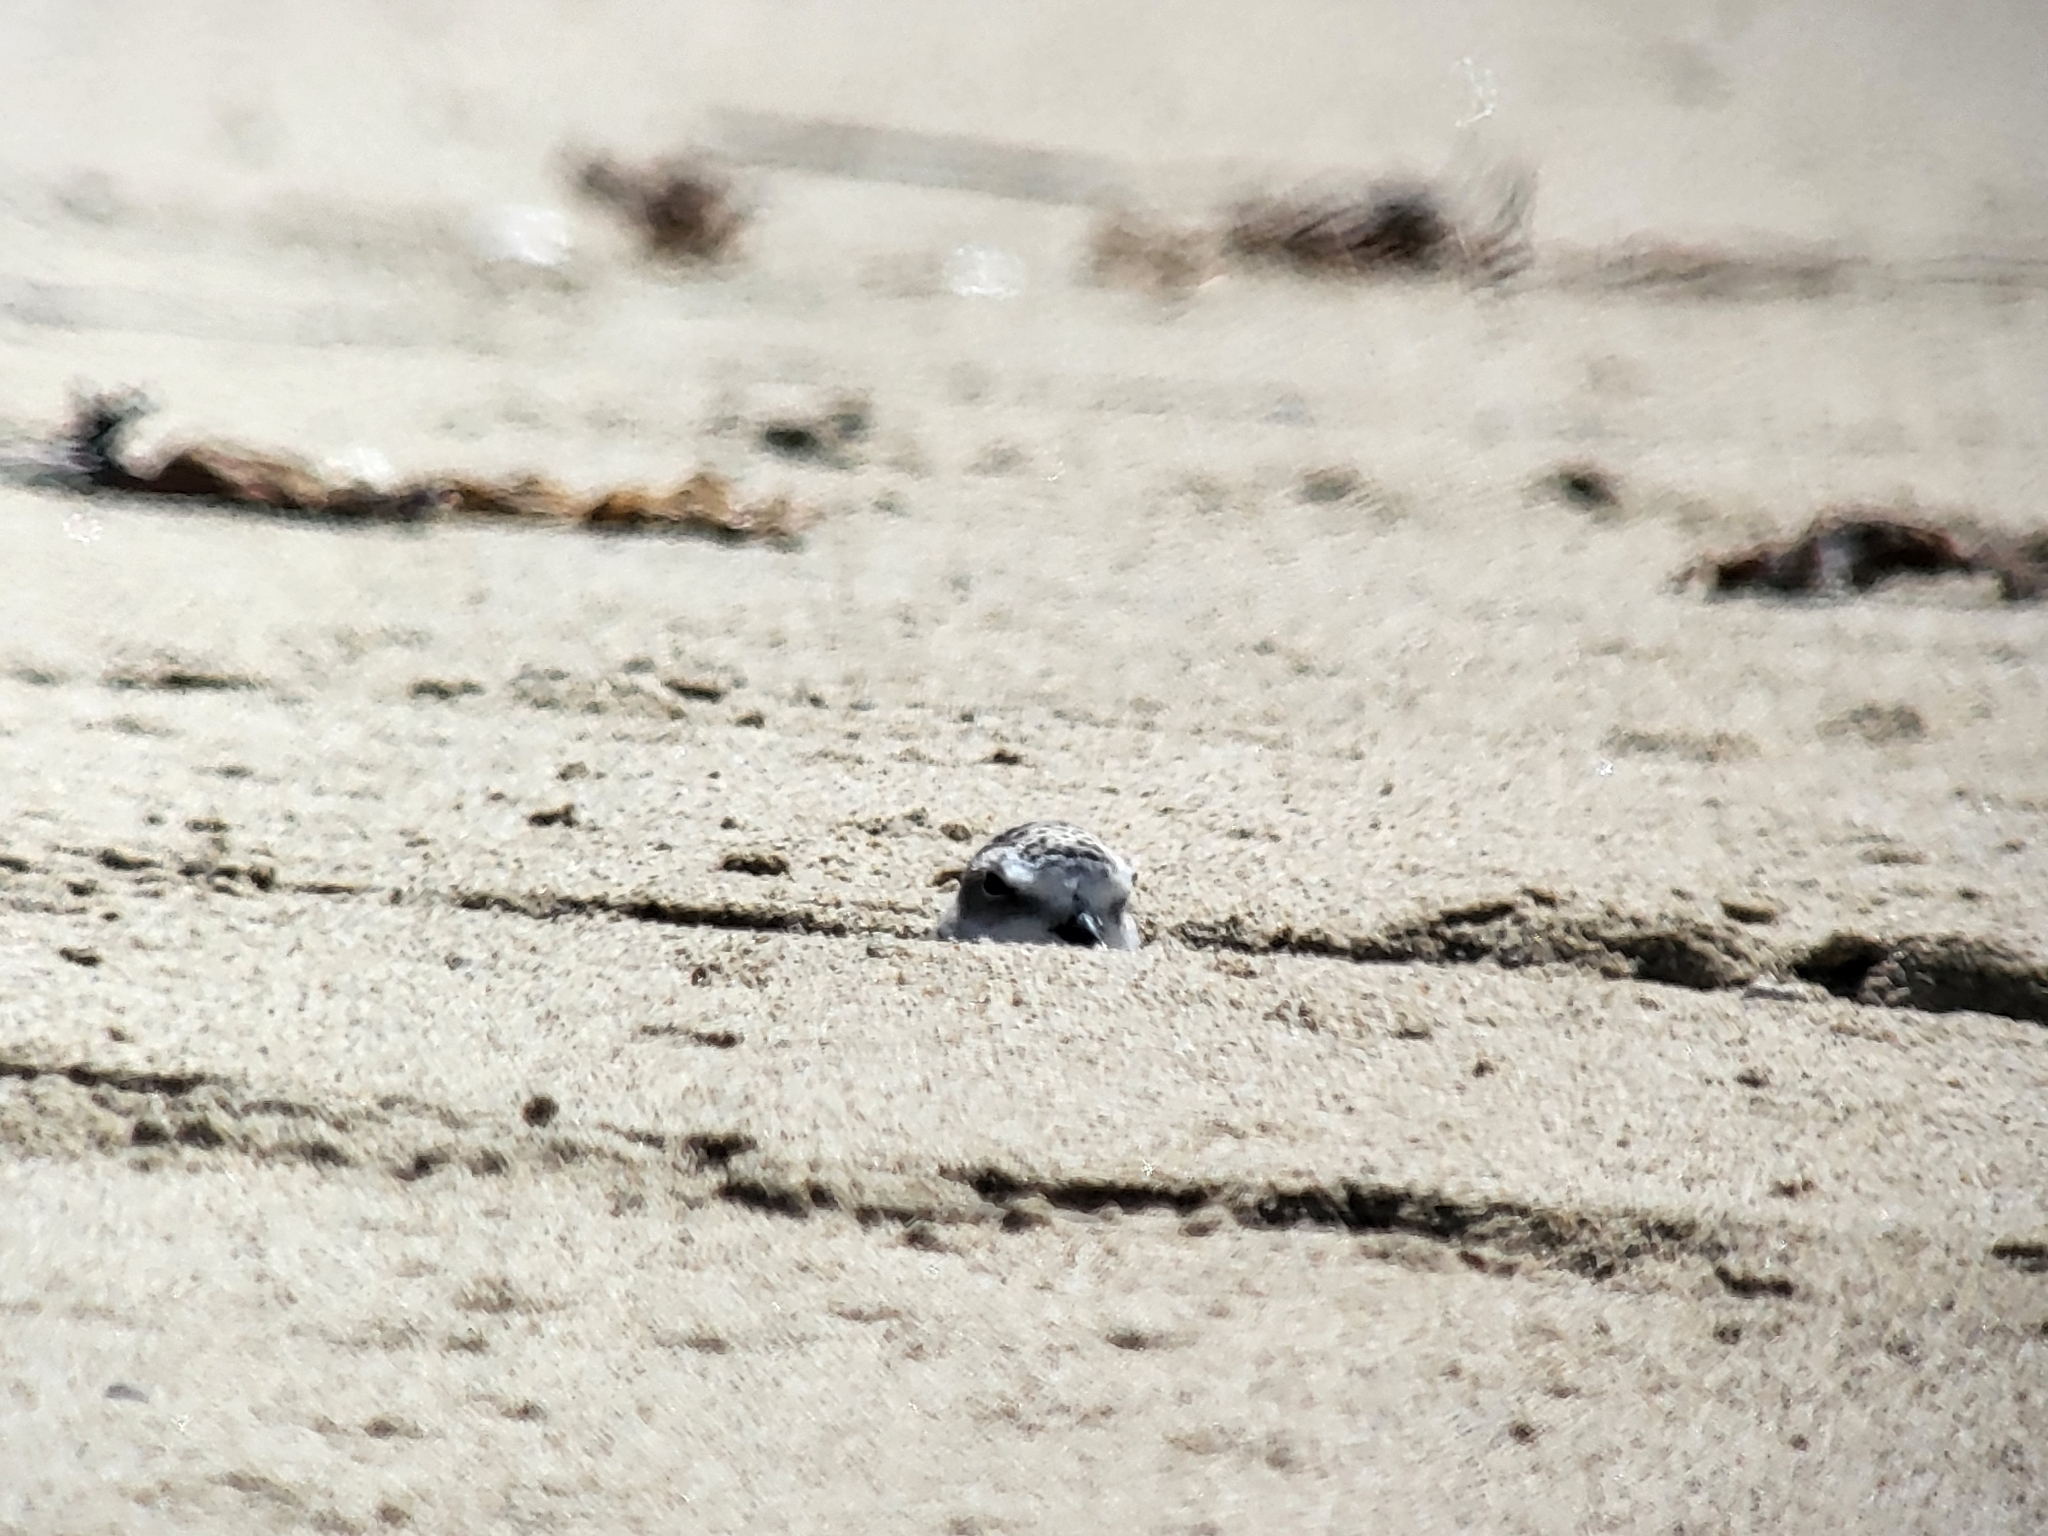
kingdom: Animalia
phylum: Chordata
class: Aves
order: Charadriiformes
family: Charadriidae
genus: Anarhynchus
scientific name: Anarhynchus
